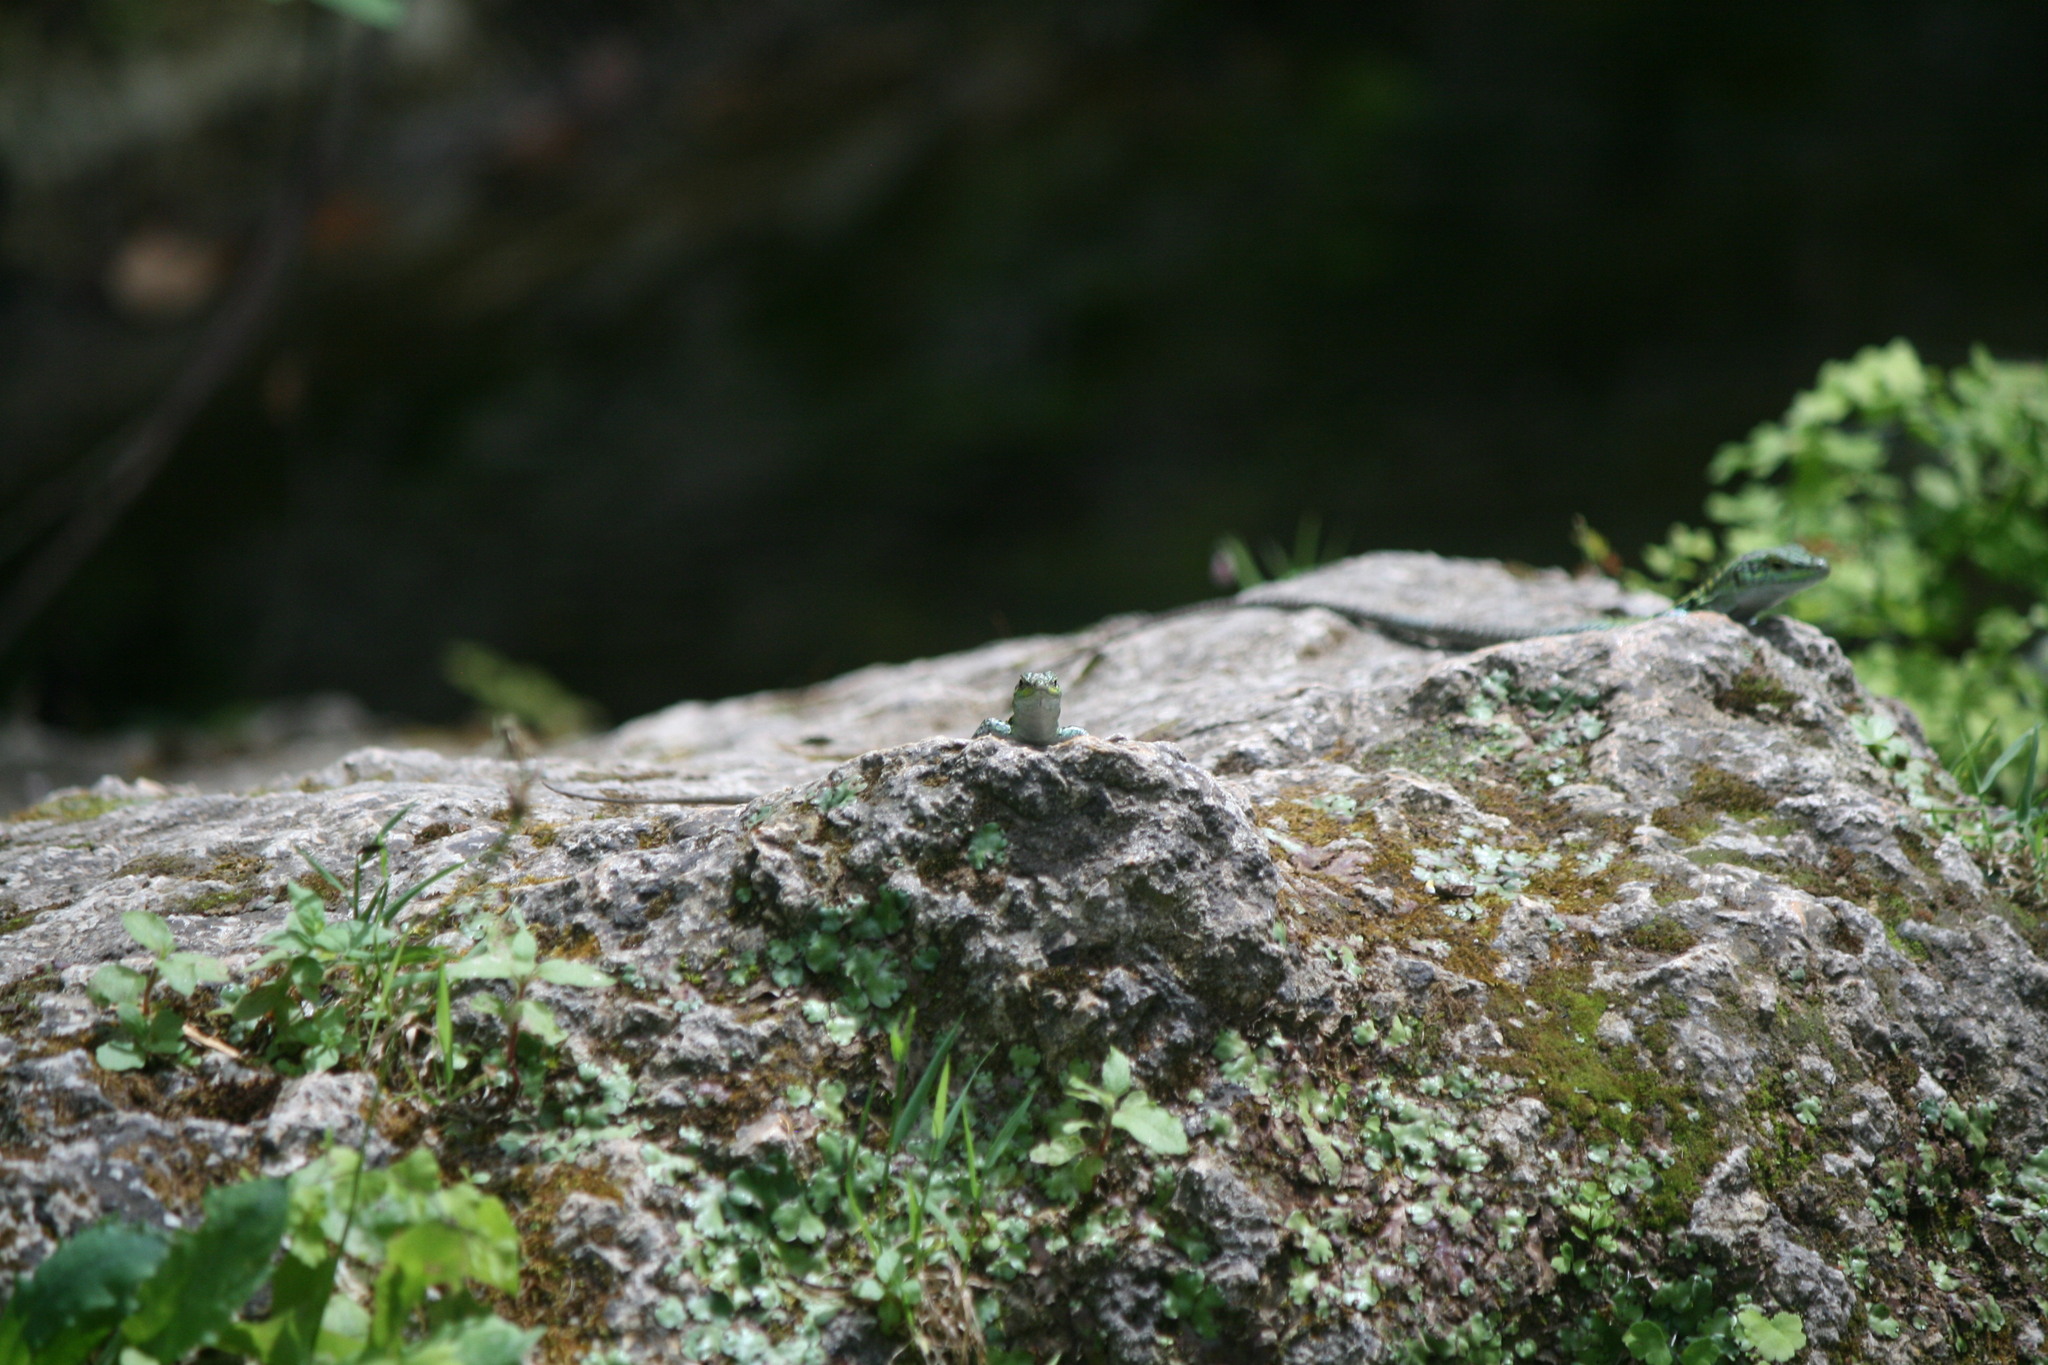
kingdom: Animalia
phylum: Chordata
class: Squamata
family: Lacertidae
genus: Podarcis
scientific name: Podarcis siculus
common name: Italian wall lizard
